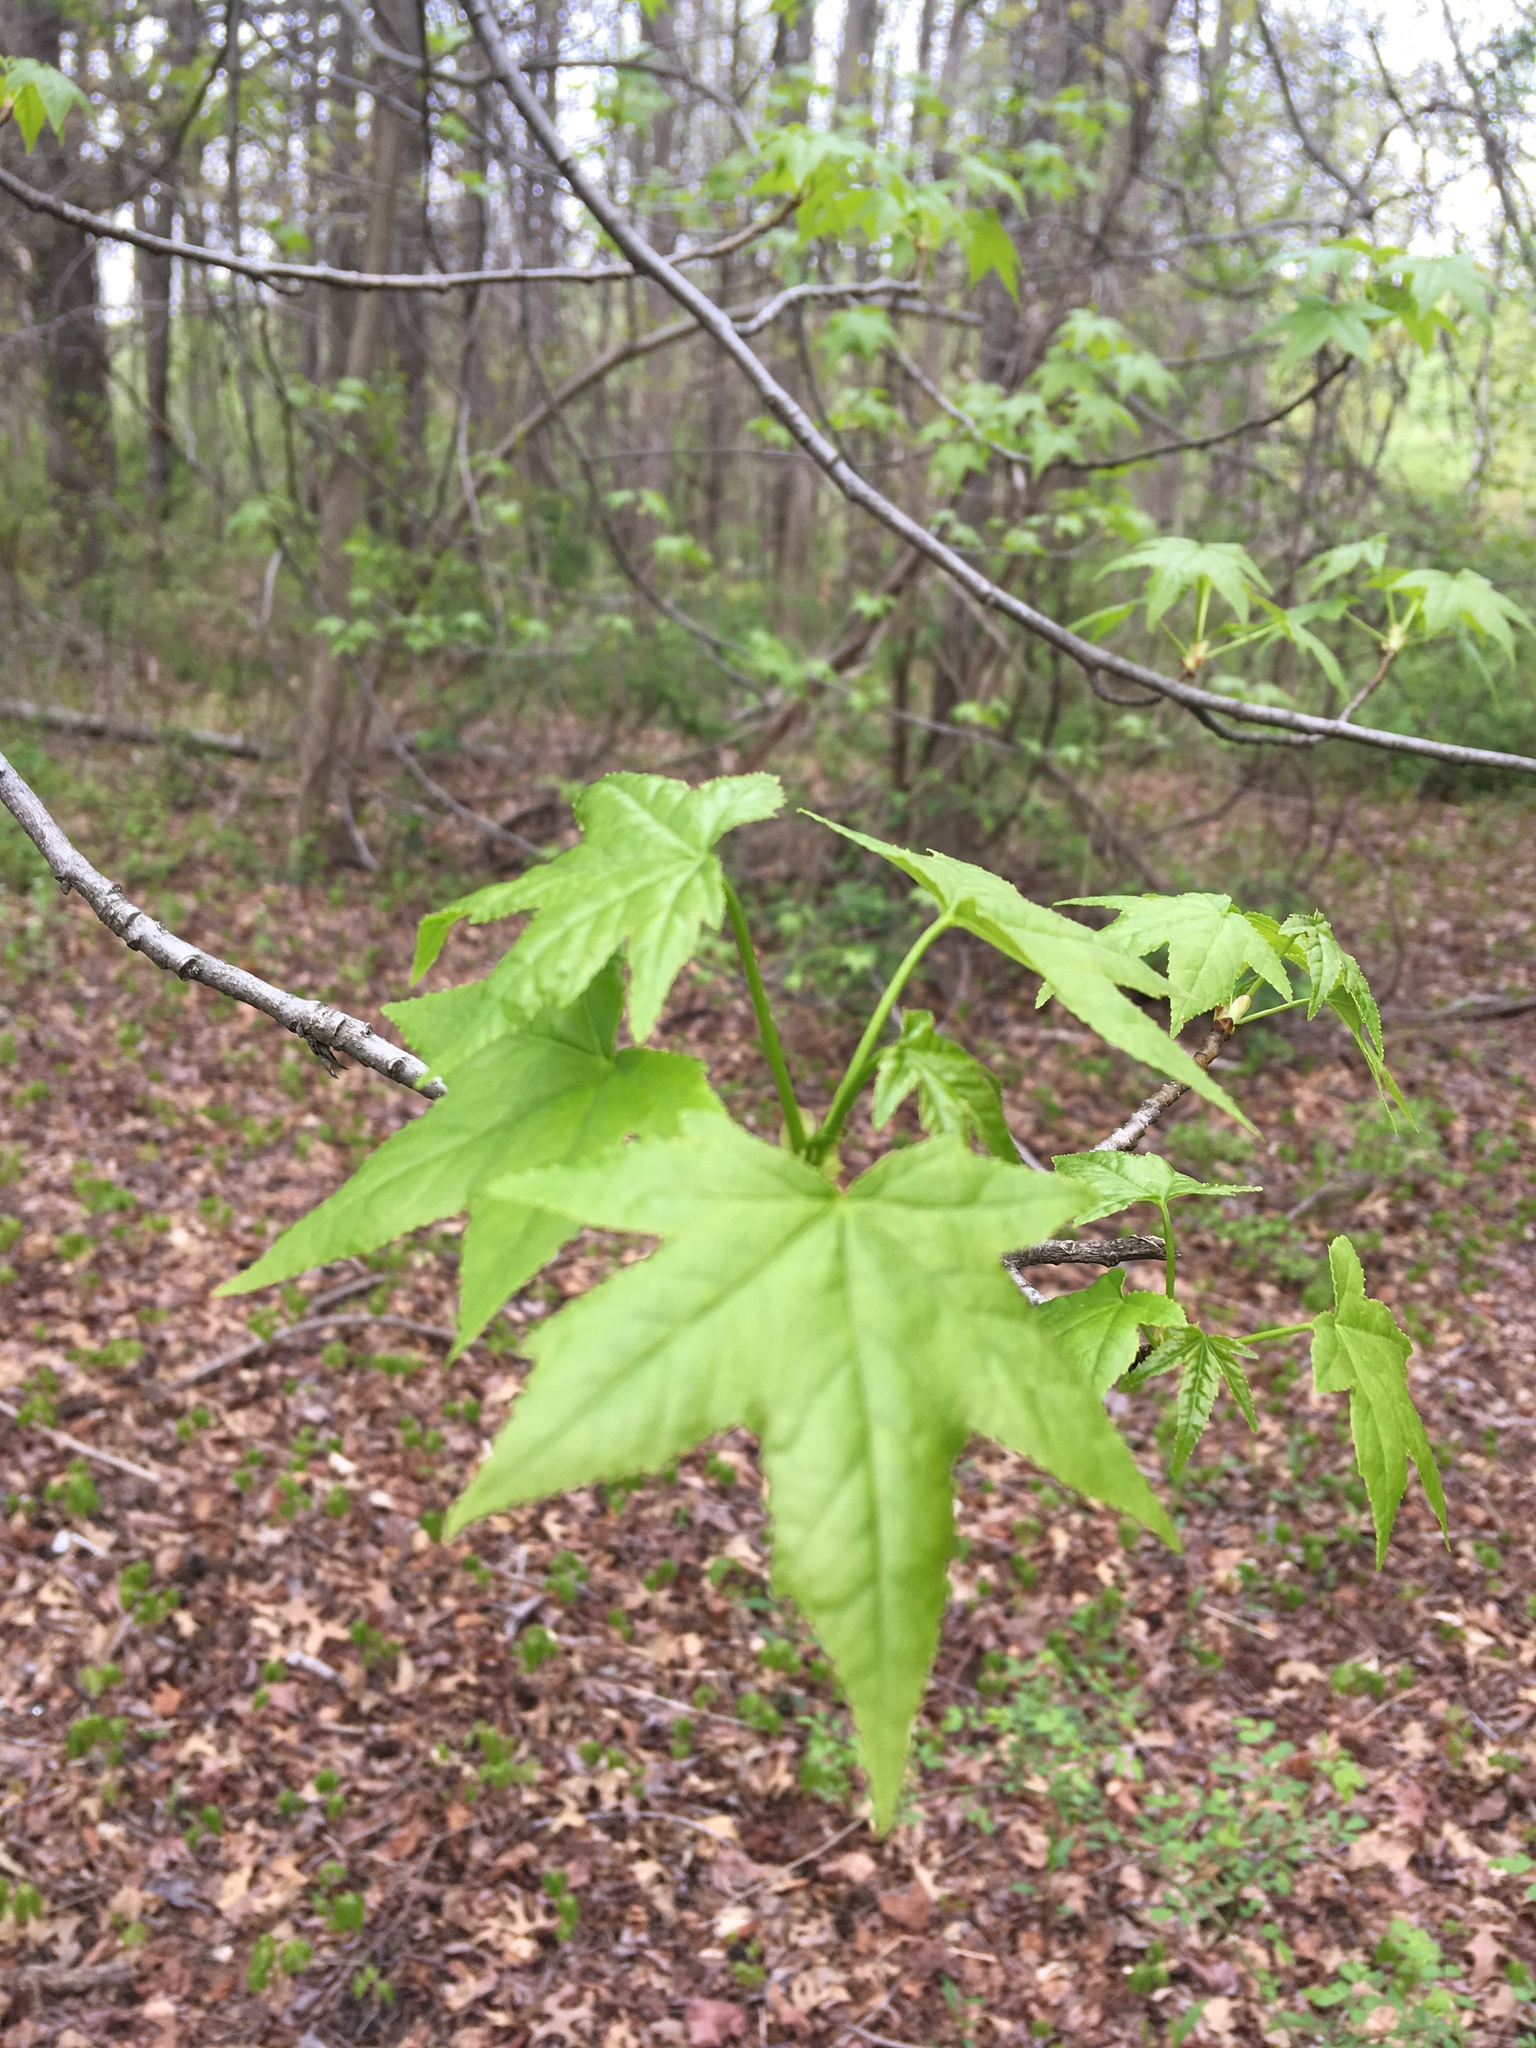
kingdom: Plantae
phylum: Tracheophyta
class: Magnoliopsida
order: Saxifragales
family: Altingiaceae
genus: Liquidambar
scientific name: Liquidambar styraciflua
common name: Sweet gum
